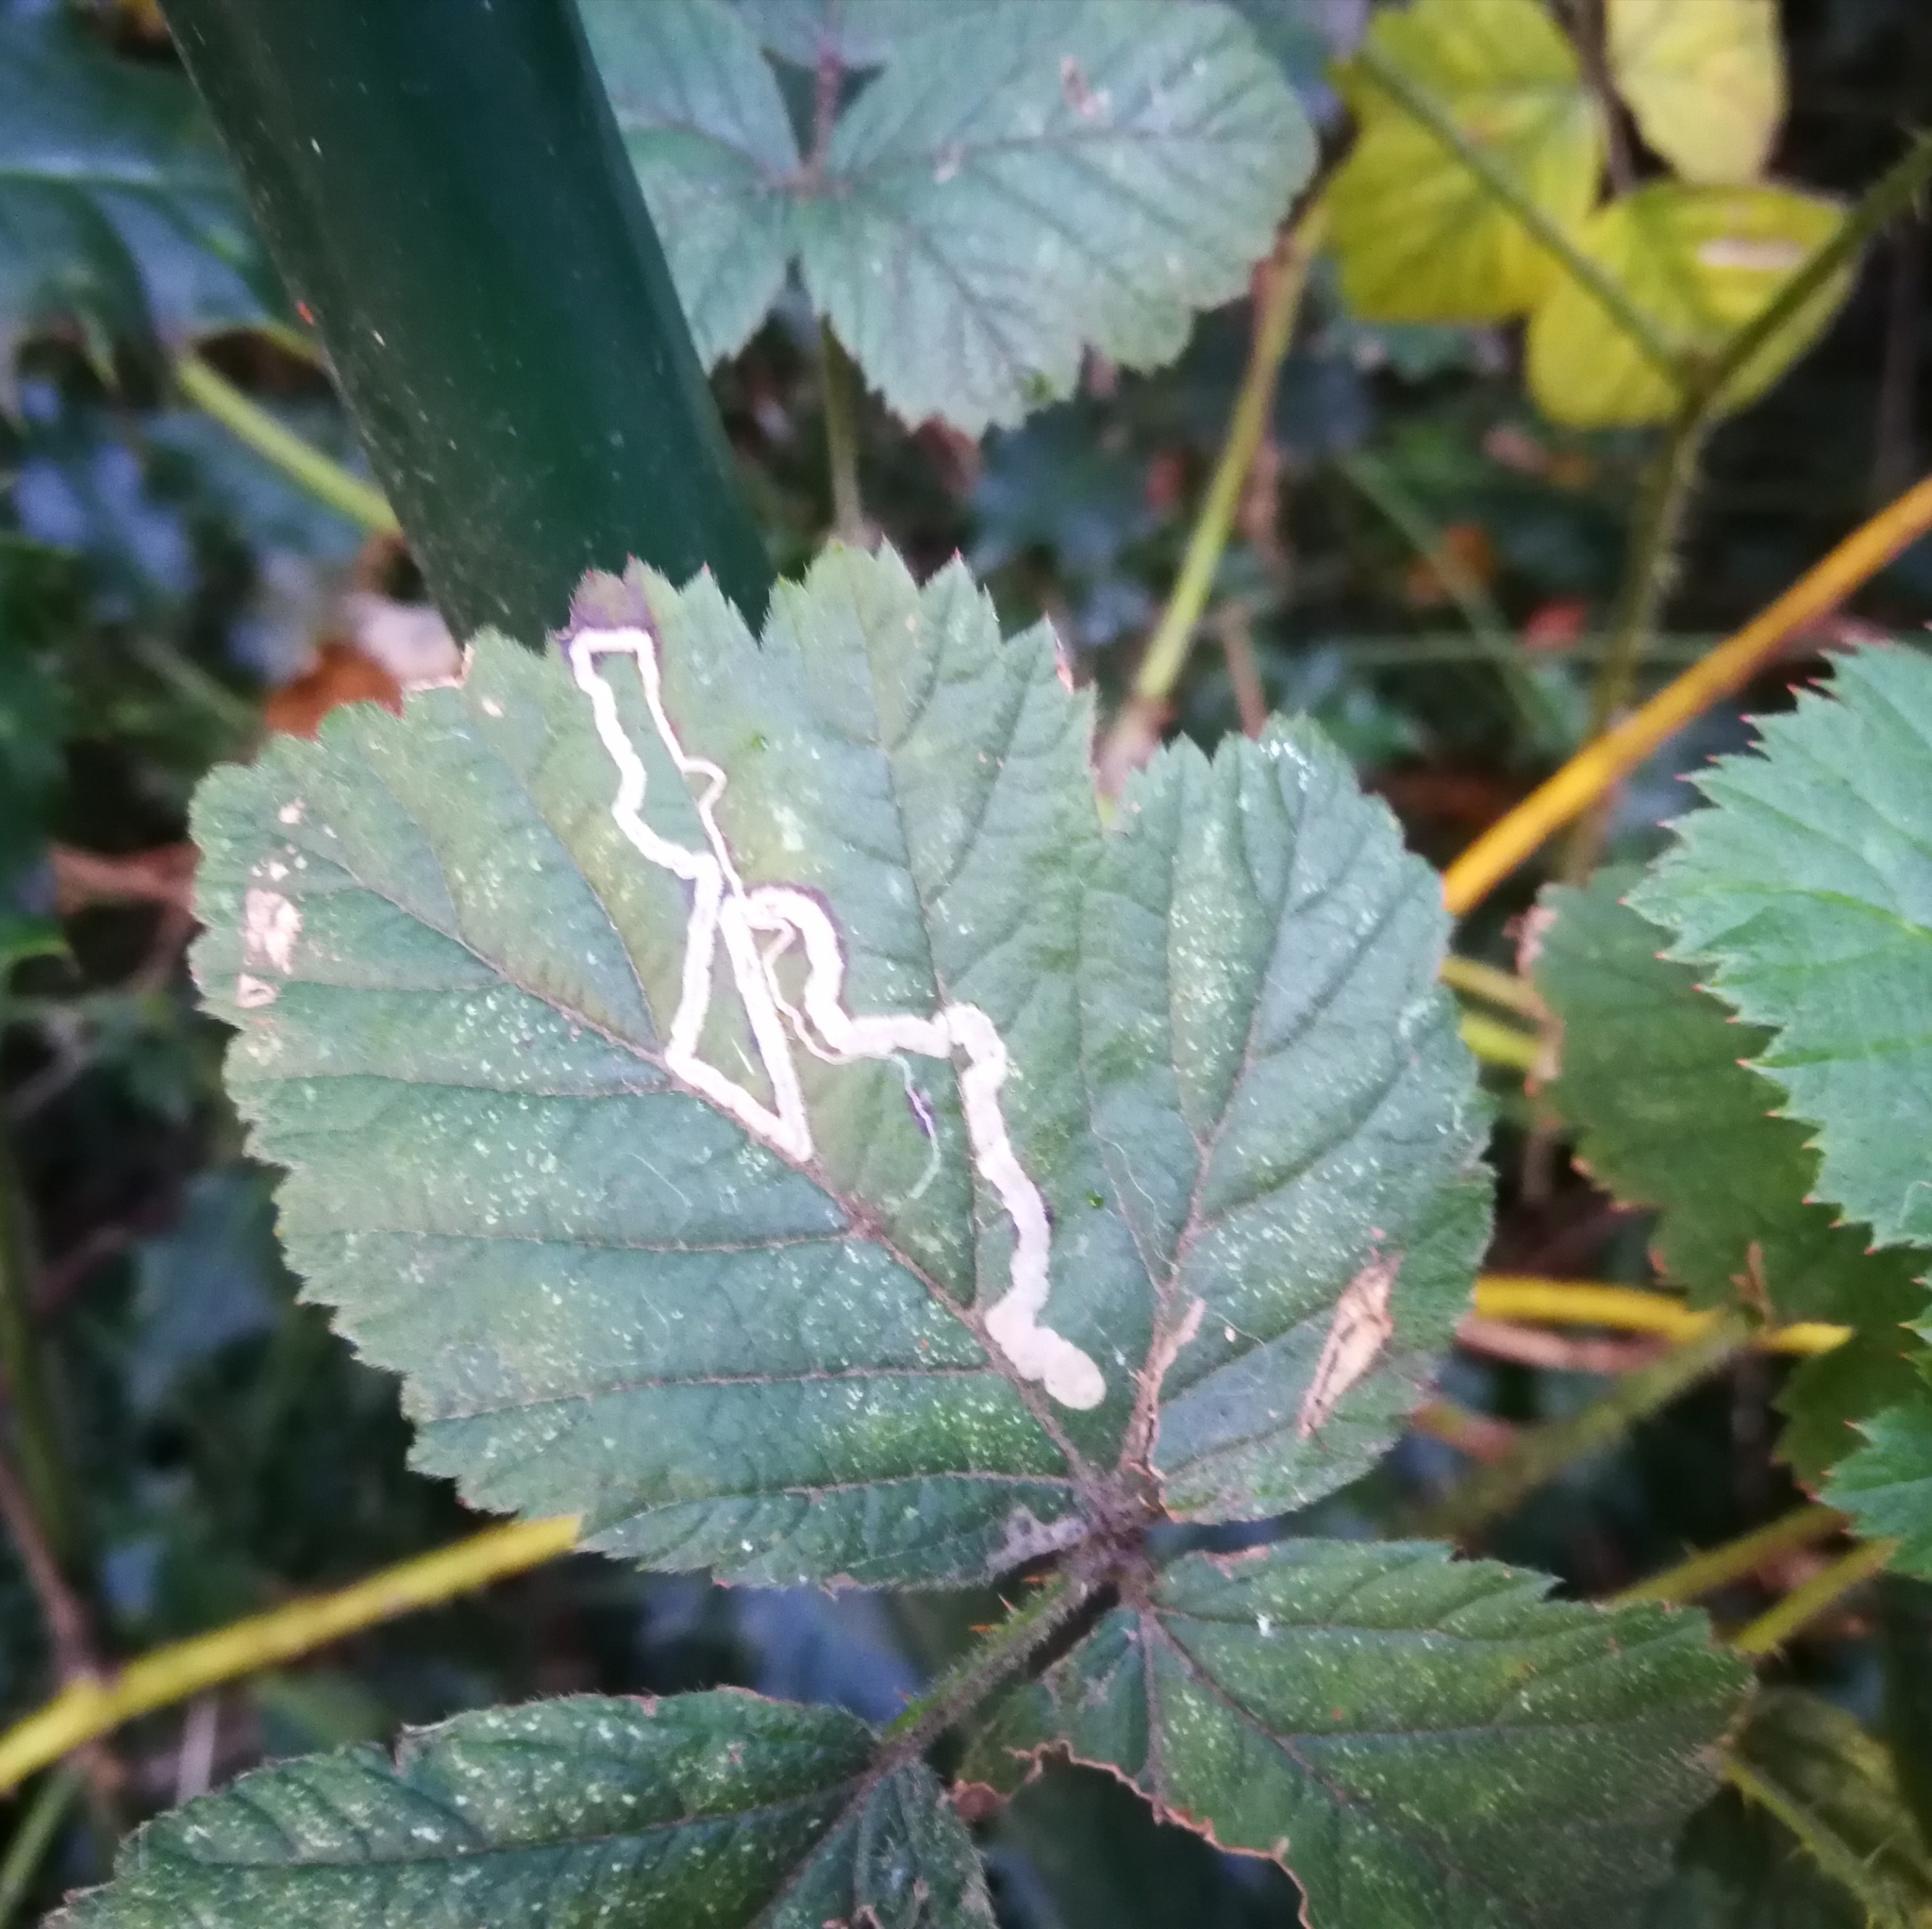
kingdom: Animalia
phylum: Arthropoda
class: Insecta
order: Lepidoptera
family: Nepticulidae
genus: Stigmella
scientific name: Stigmella aurella
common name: Golden pigmy
